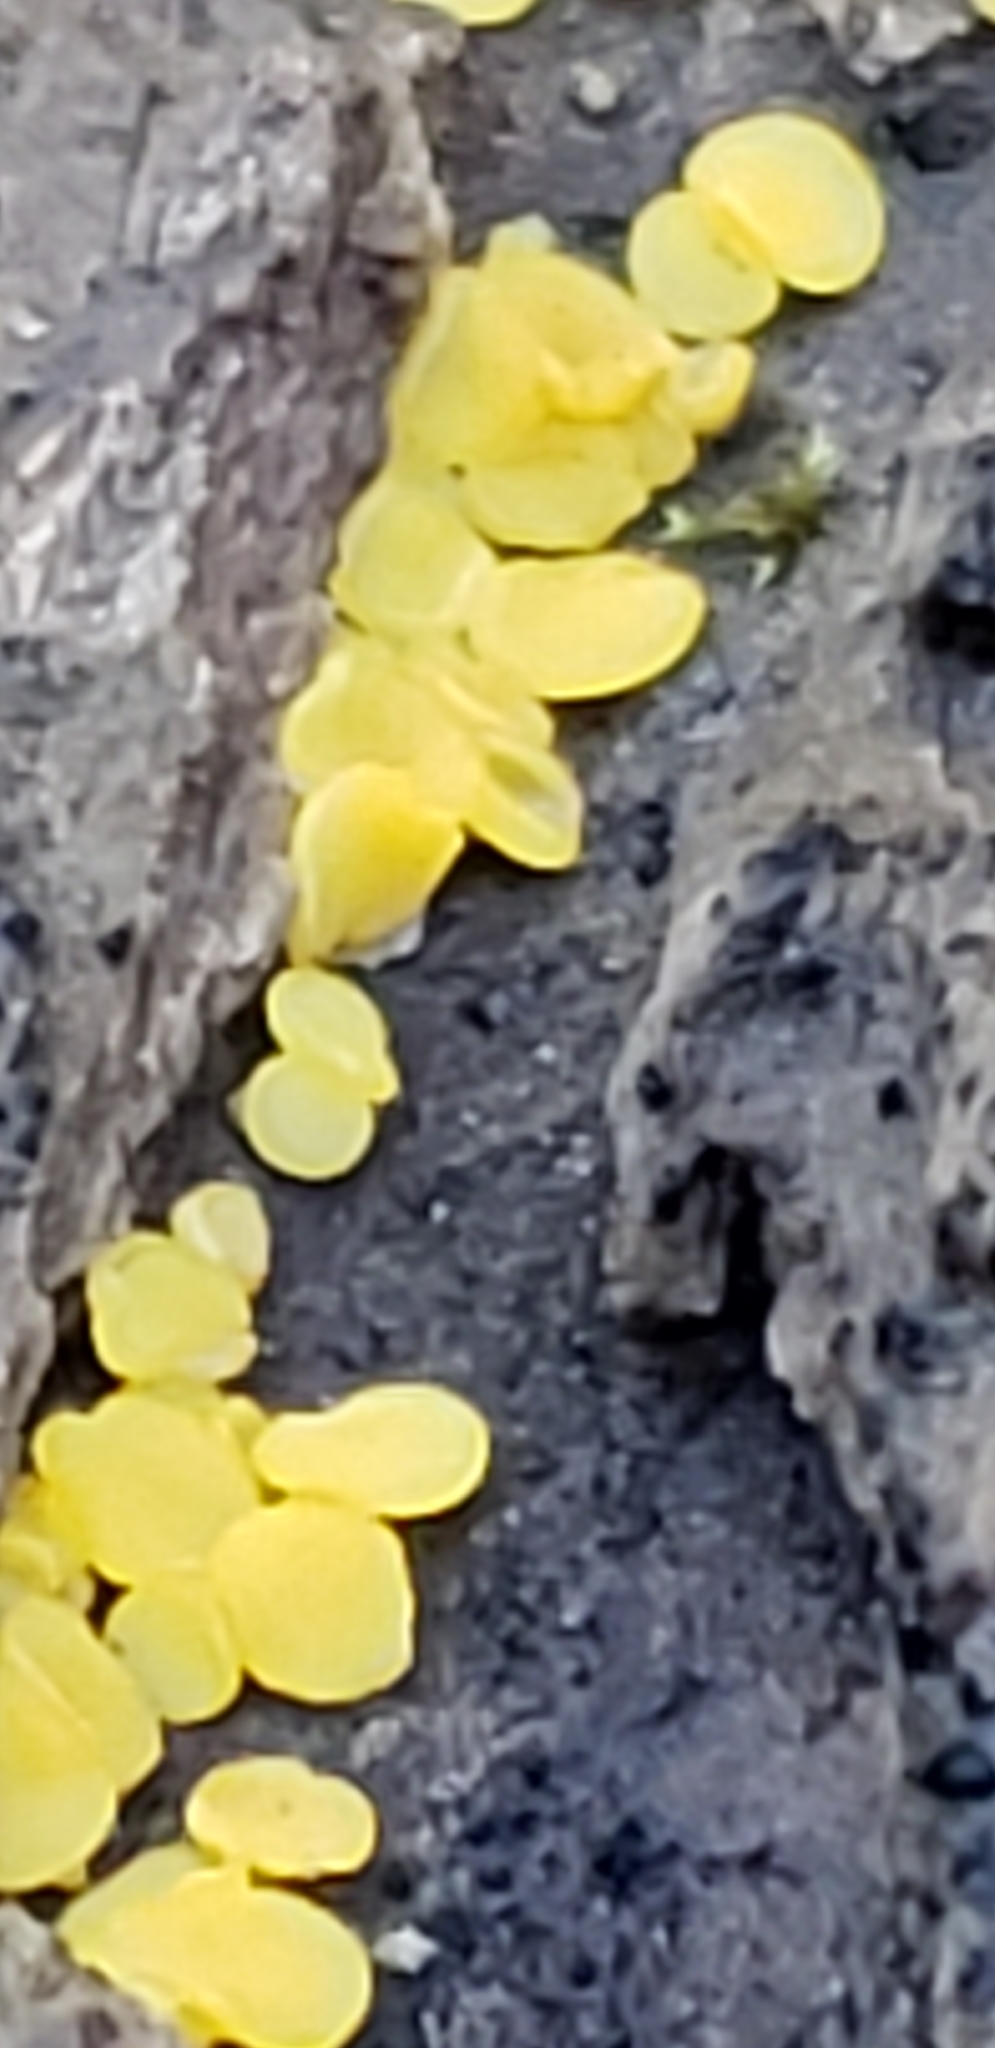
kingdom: Fungi
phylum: Ascomycota
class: Leotiomycetes
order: Helotiales
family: Pezizellaceae
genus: Calycina
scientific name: Calycina citrina
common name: Yellow fairy cups
